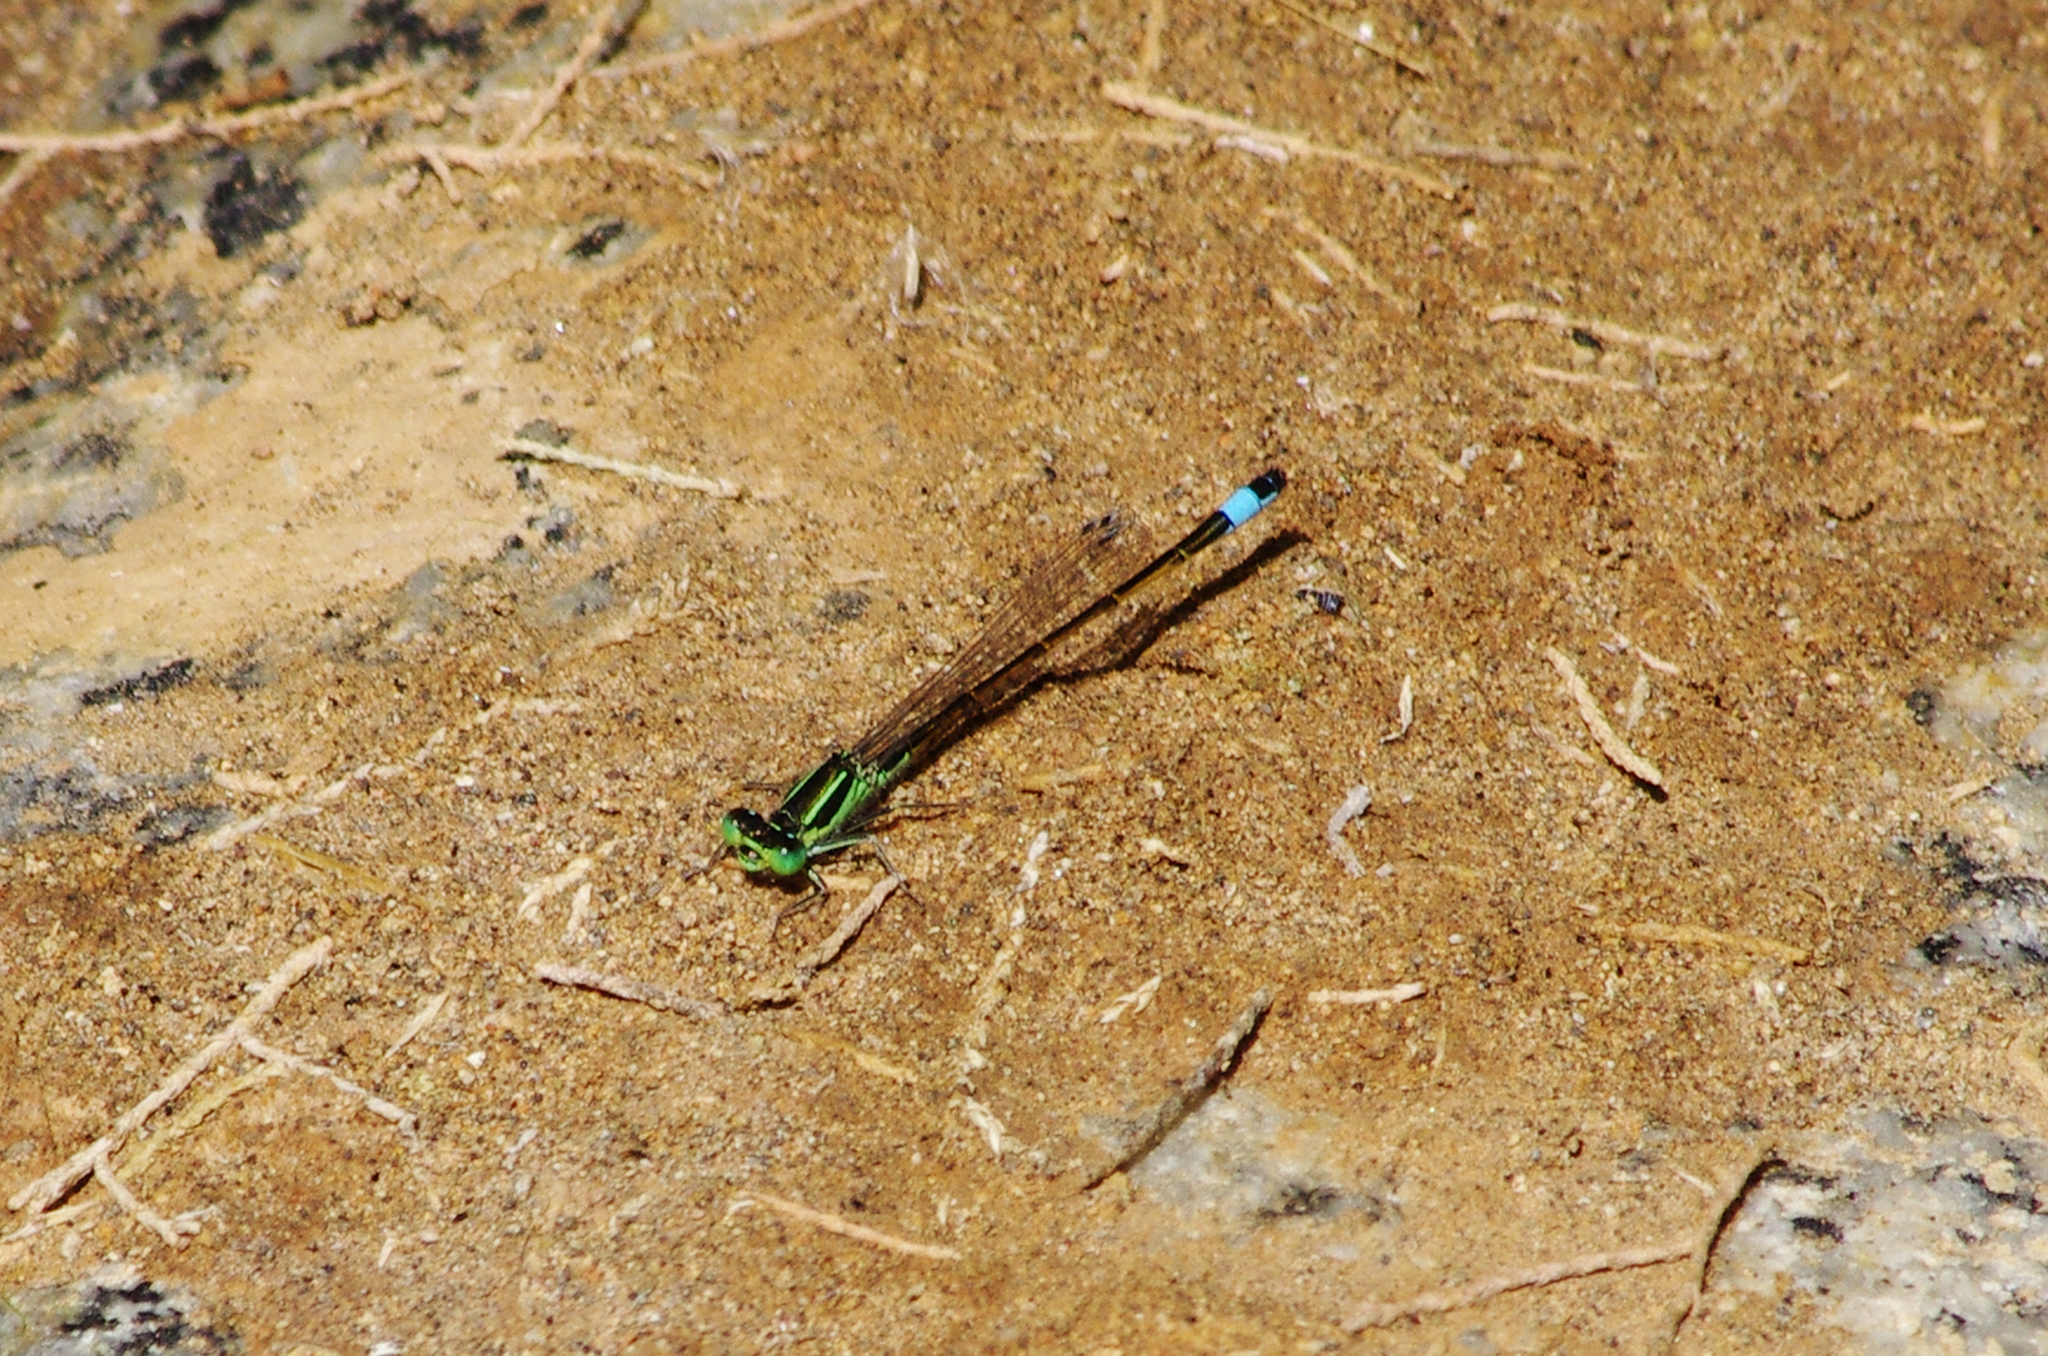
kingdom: Animalia
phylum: Arthropoda
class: Insecta
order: Odonata
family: Coenagrionidae
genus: Ischnura
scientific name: Ischnura saharensis
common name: Sahara bluetail
